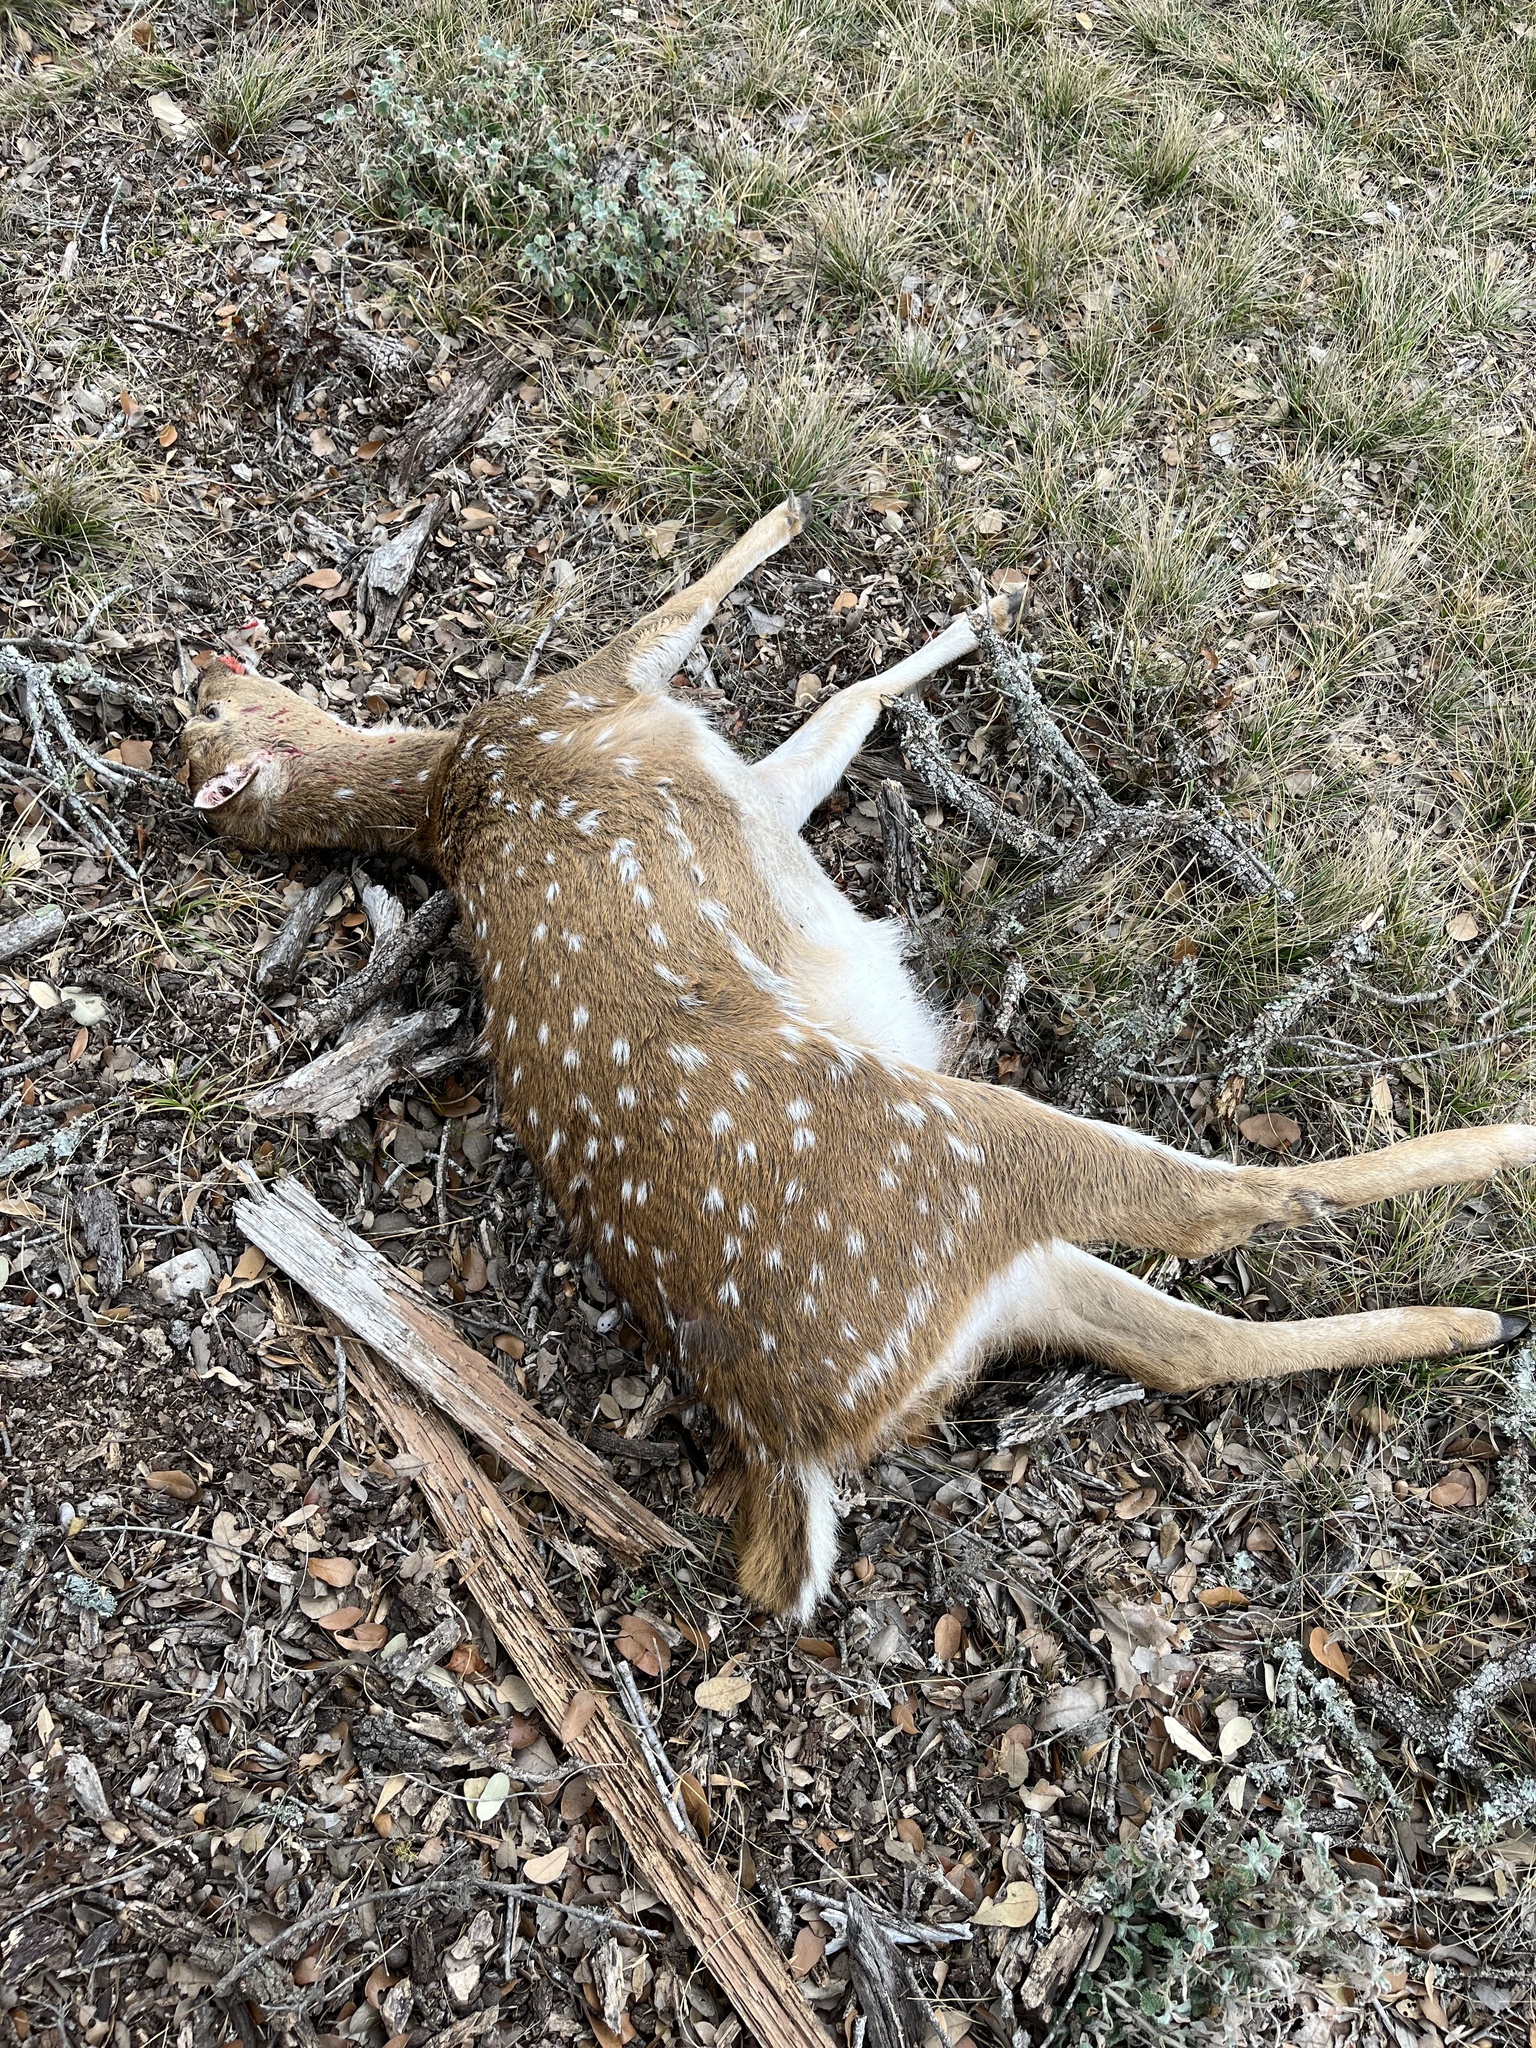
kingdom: Animalia
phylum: Chordata
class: Mammalia
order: Artiodactyla
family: Cervidae
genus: Axis
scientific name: Axis axis
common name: Chital
